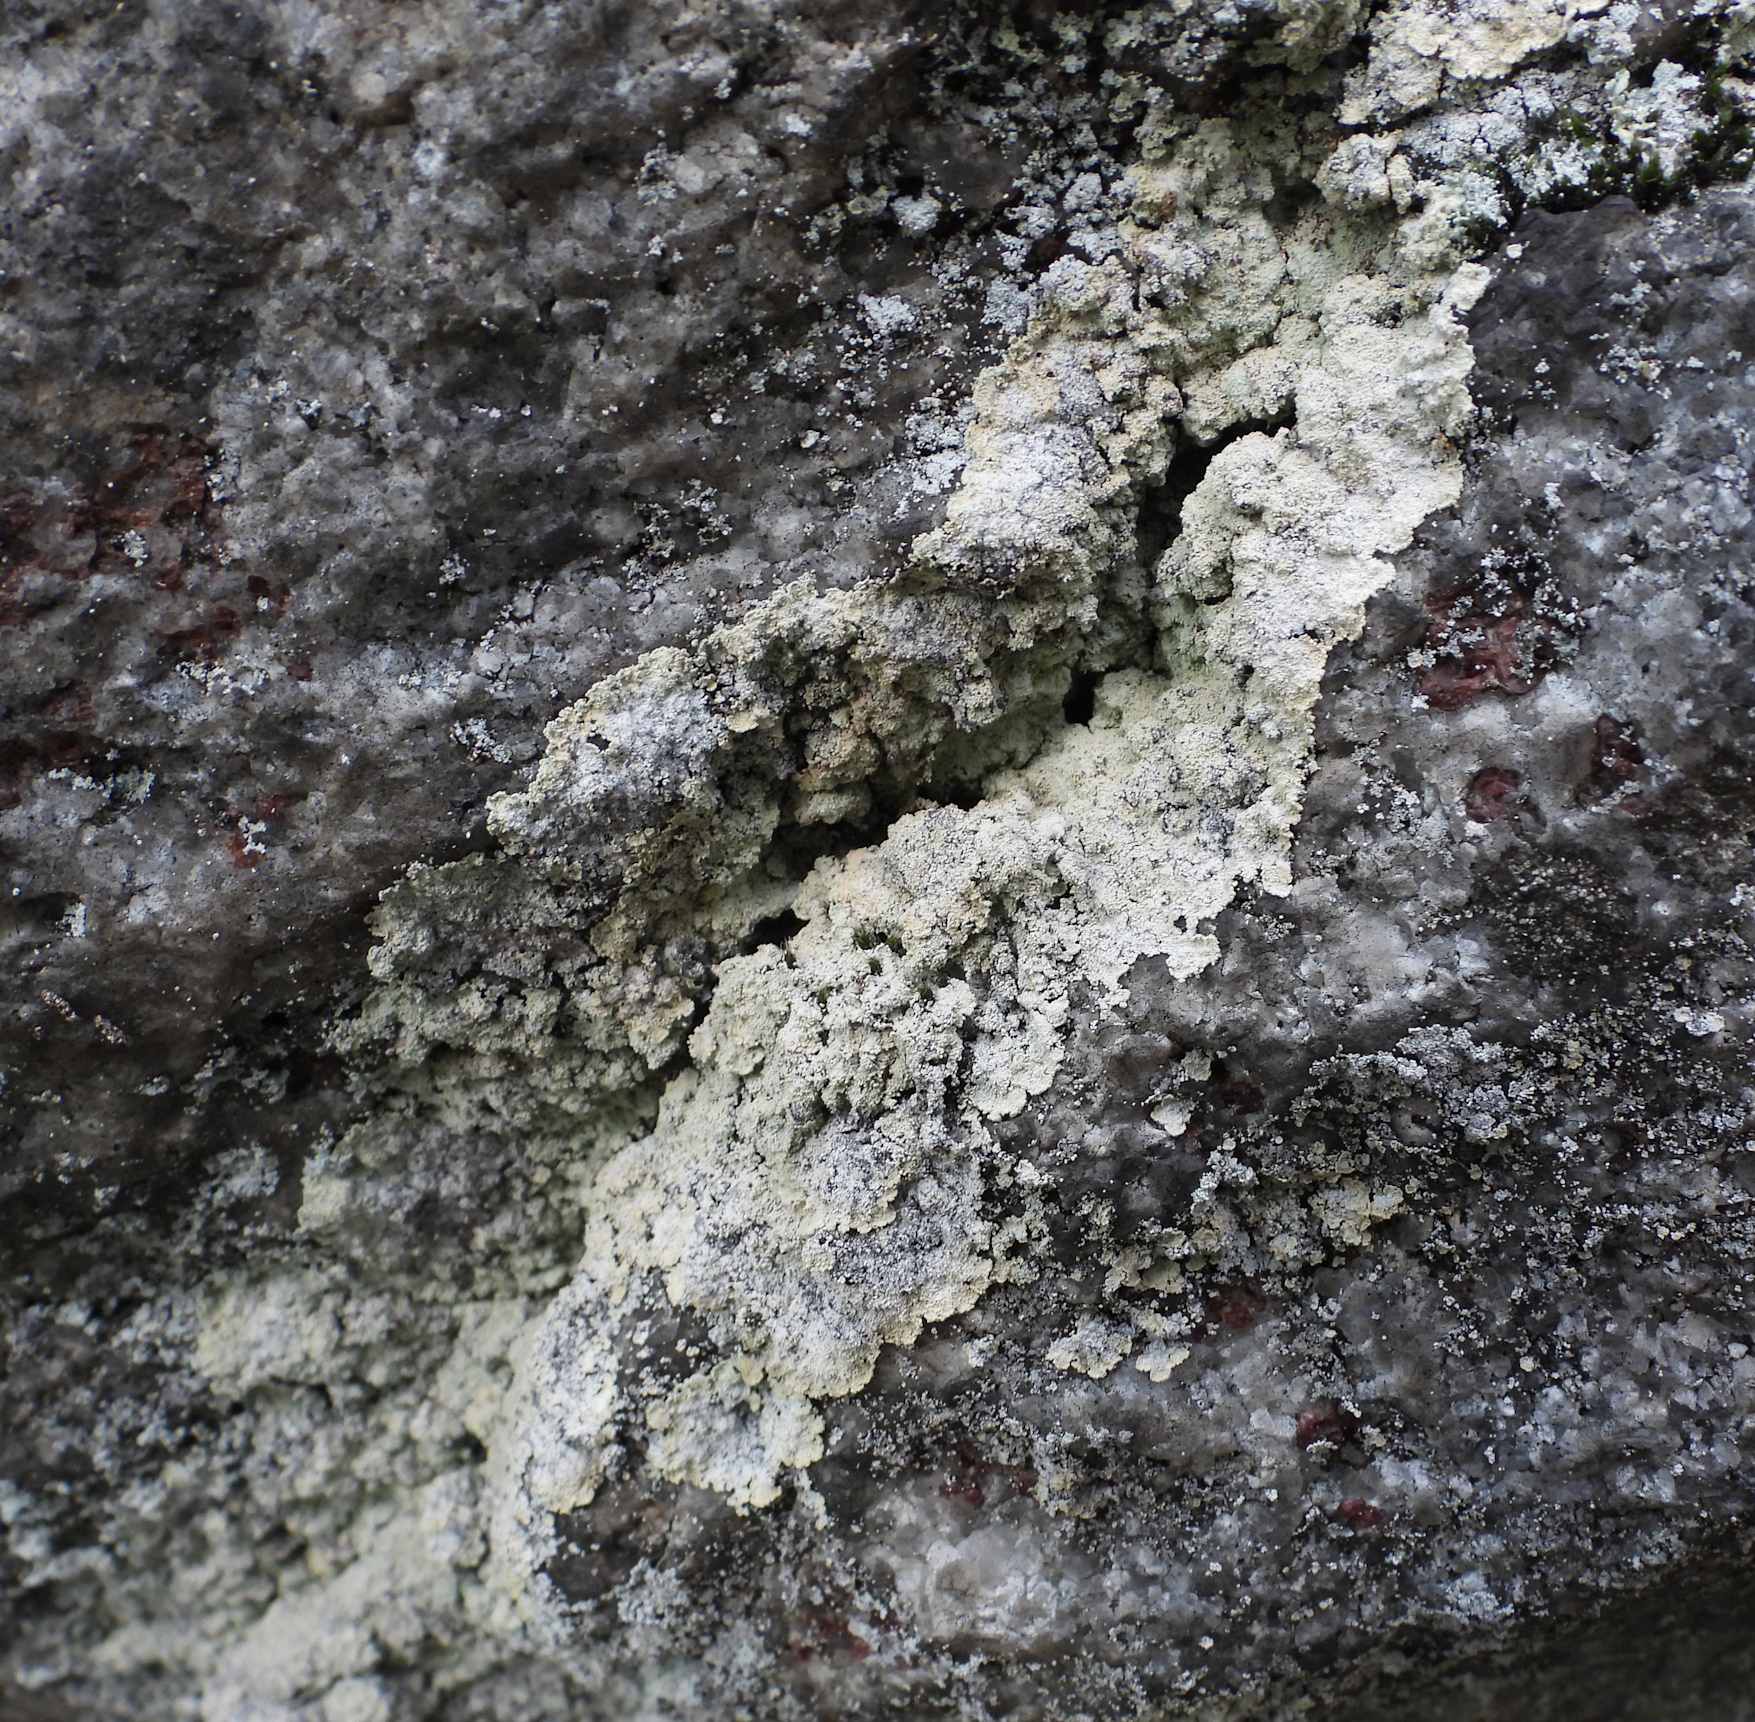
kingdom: Fungi
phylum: Ascomycota
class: Lecanoromycetes
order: Lecanorales
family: Stereocaulaceae
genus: Lepraria
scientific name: Lepraria membranacea
